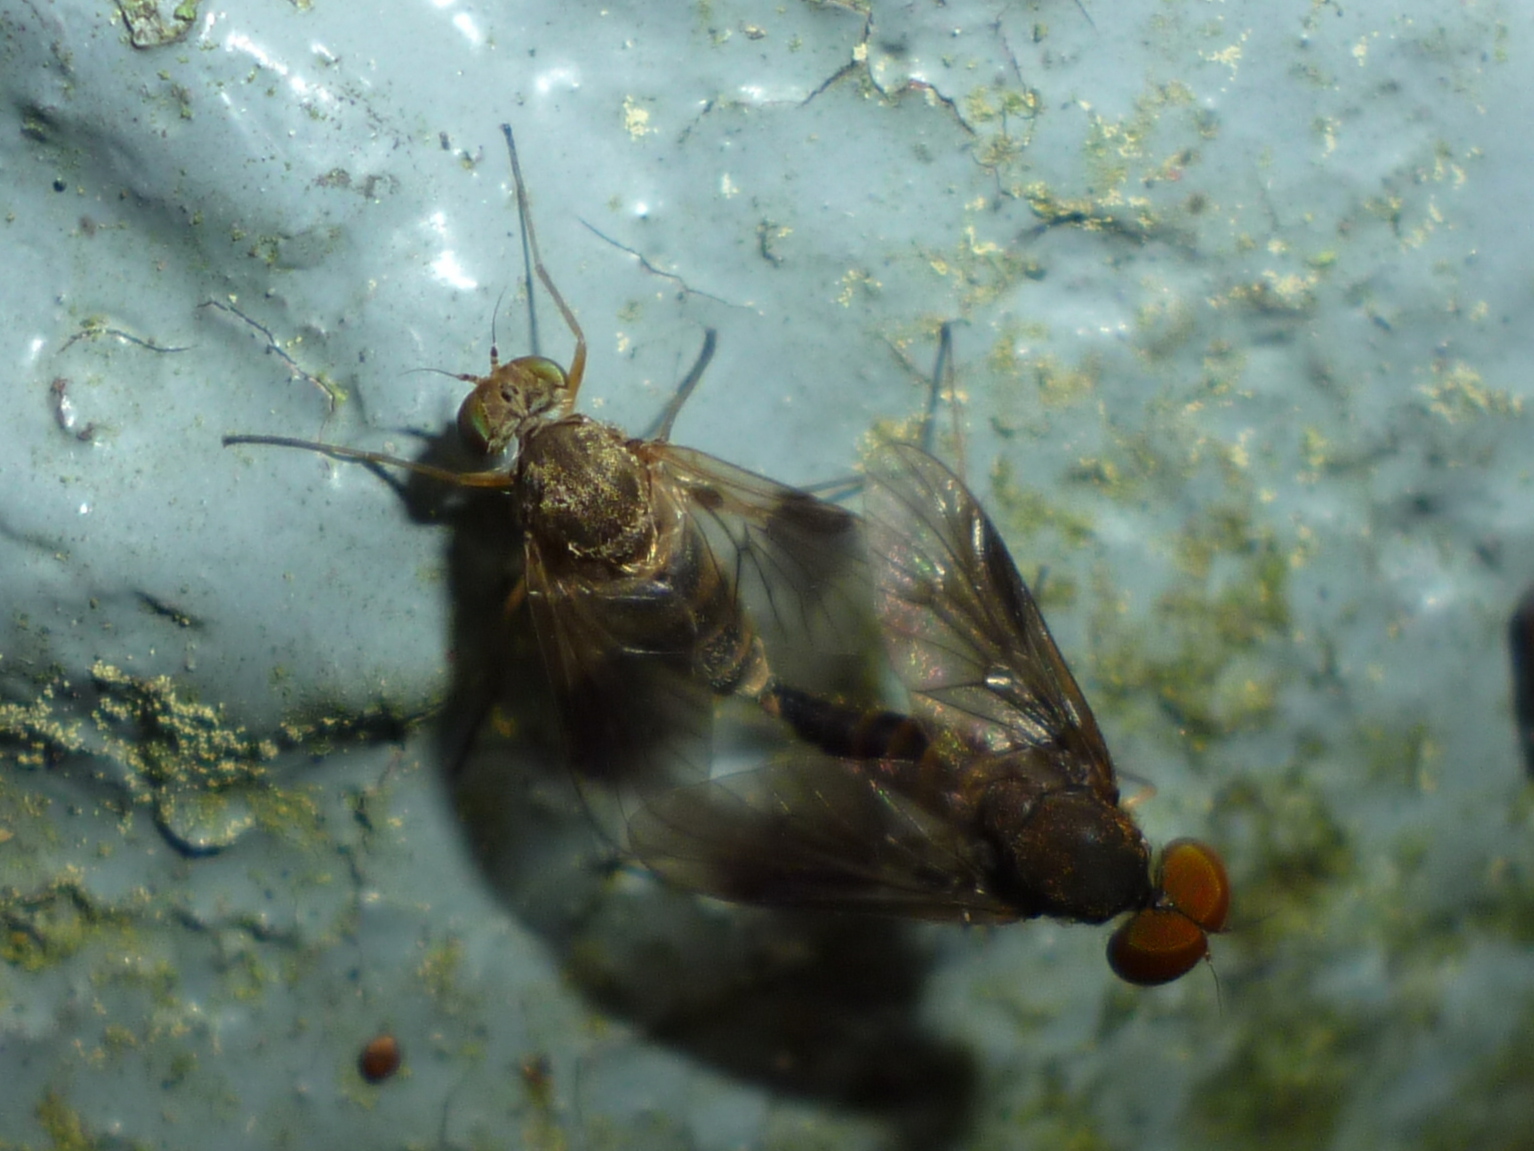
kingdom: Animalia
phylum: Arthropoda
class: Insecta
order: Diptera
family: Rhagionidae
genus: Chrysopilus
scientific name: Chrysopilus quadratus
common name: Quadrate snipe fly
